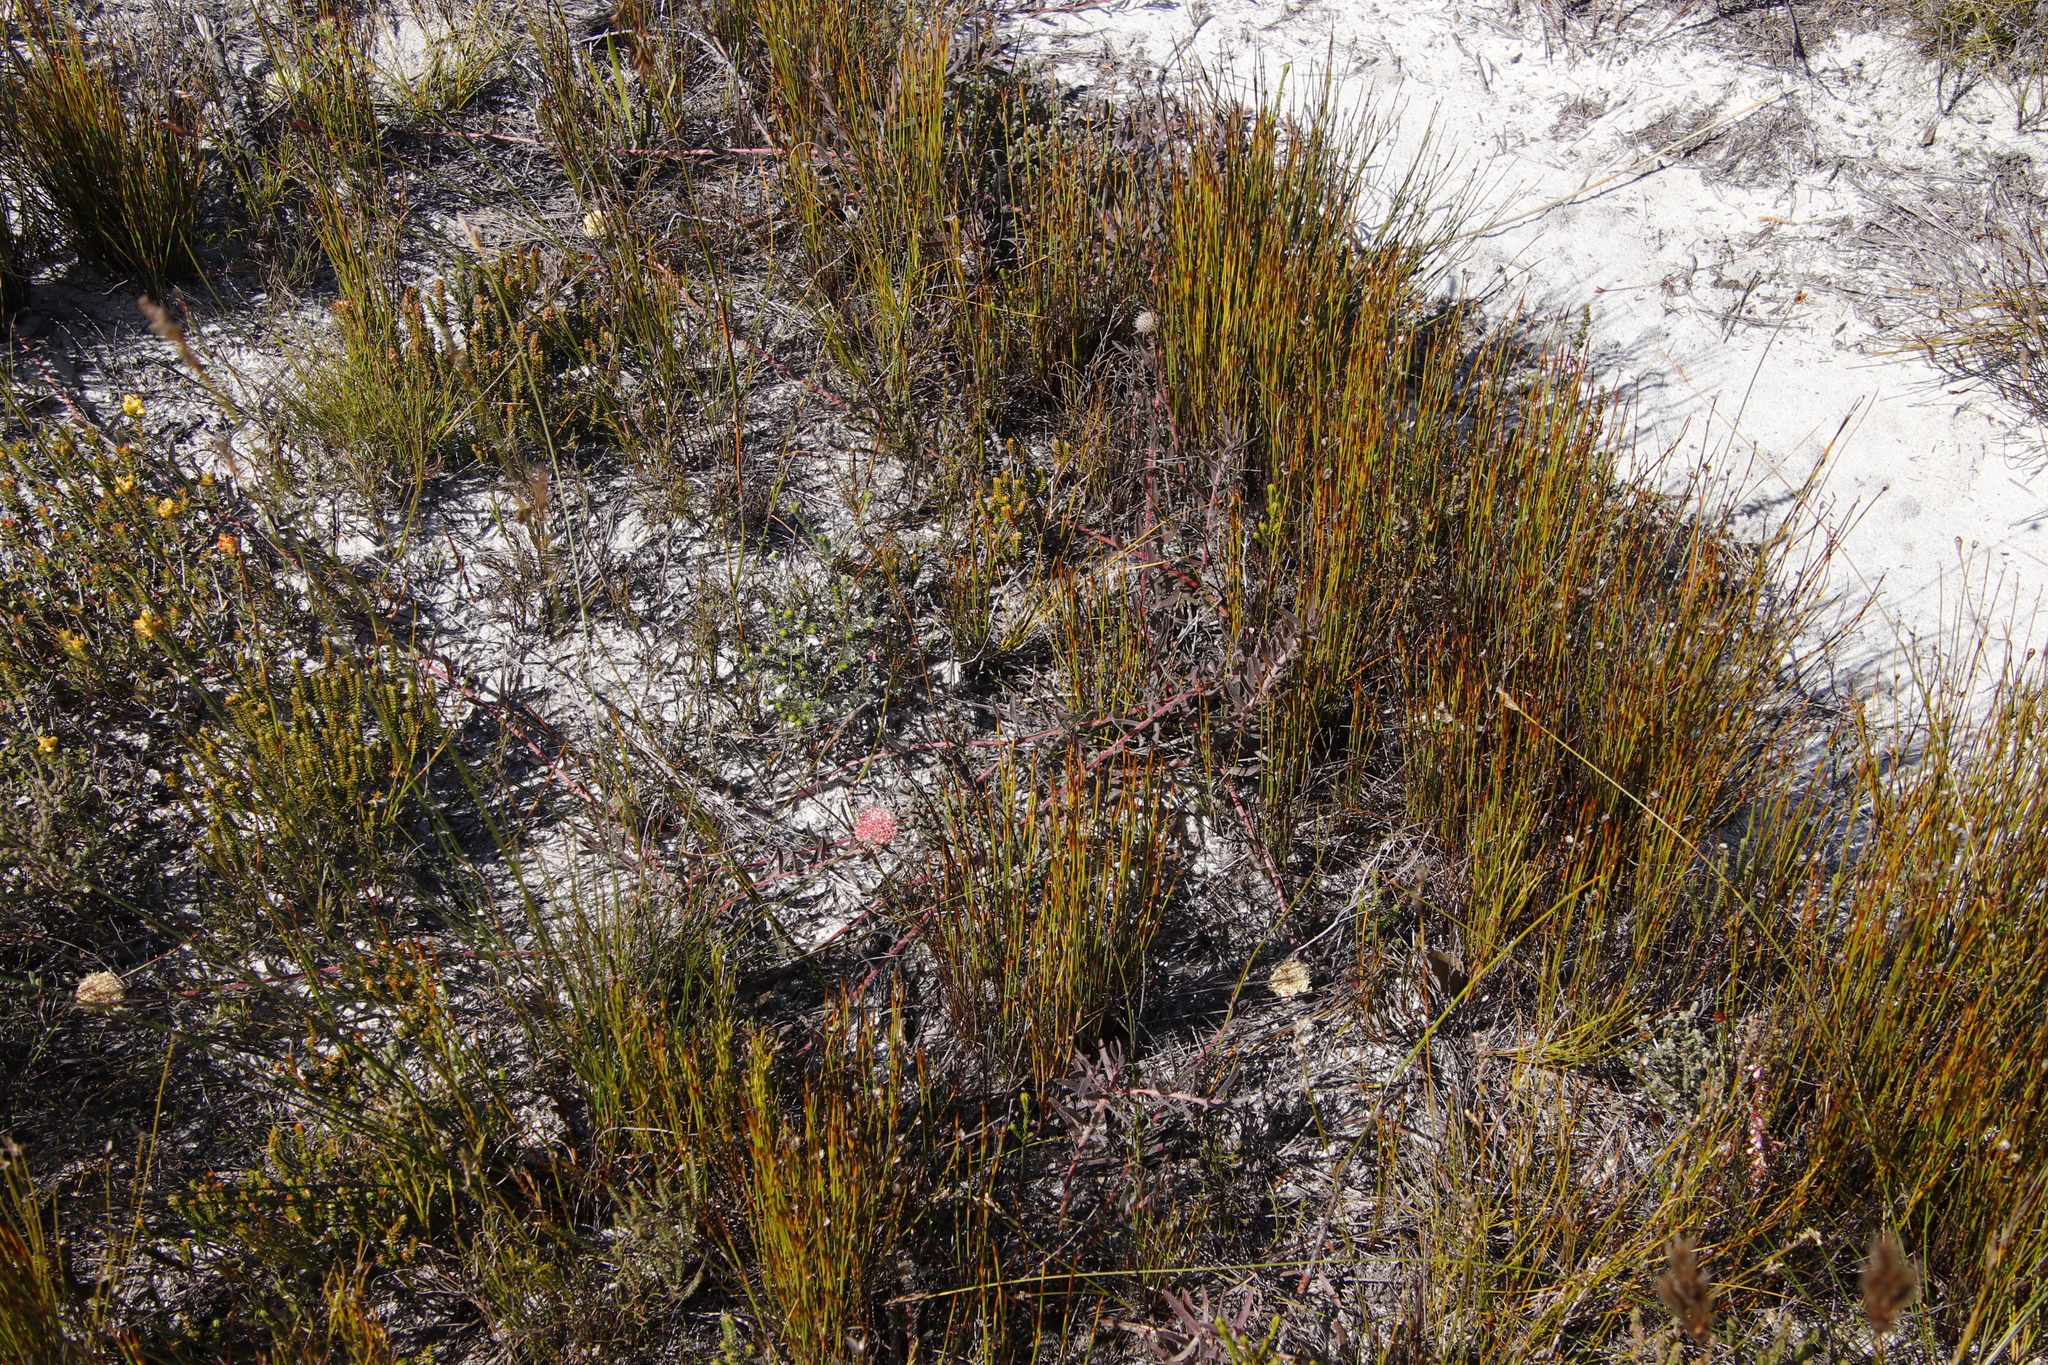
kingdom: Plantae
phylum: Tracheophyta
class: Magnoliopsida
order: Proteales
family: Proteaceae
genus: Leucospermum
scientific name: Leucospermum pedunculatum
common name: White-trailing pincushion
